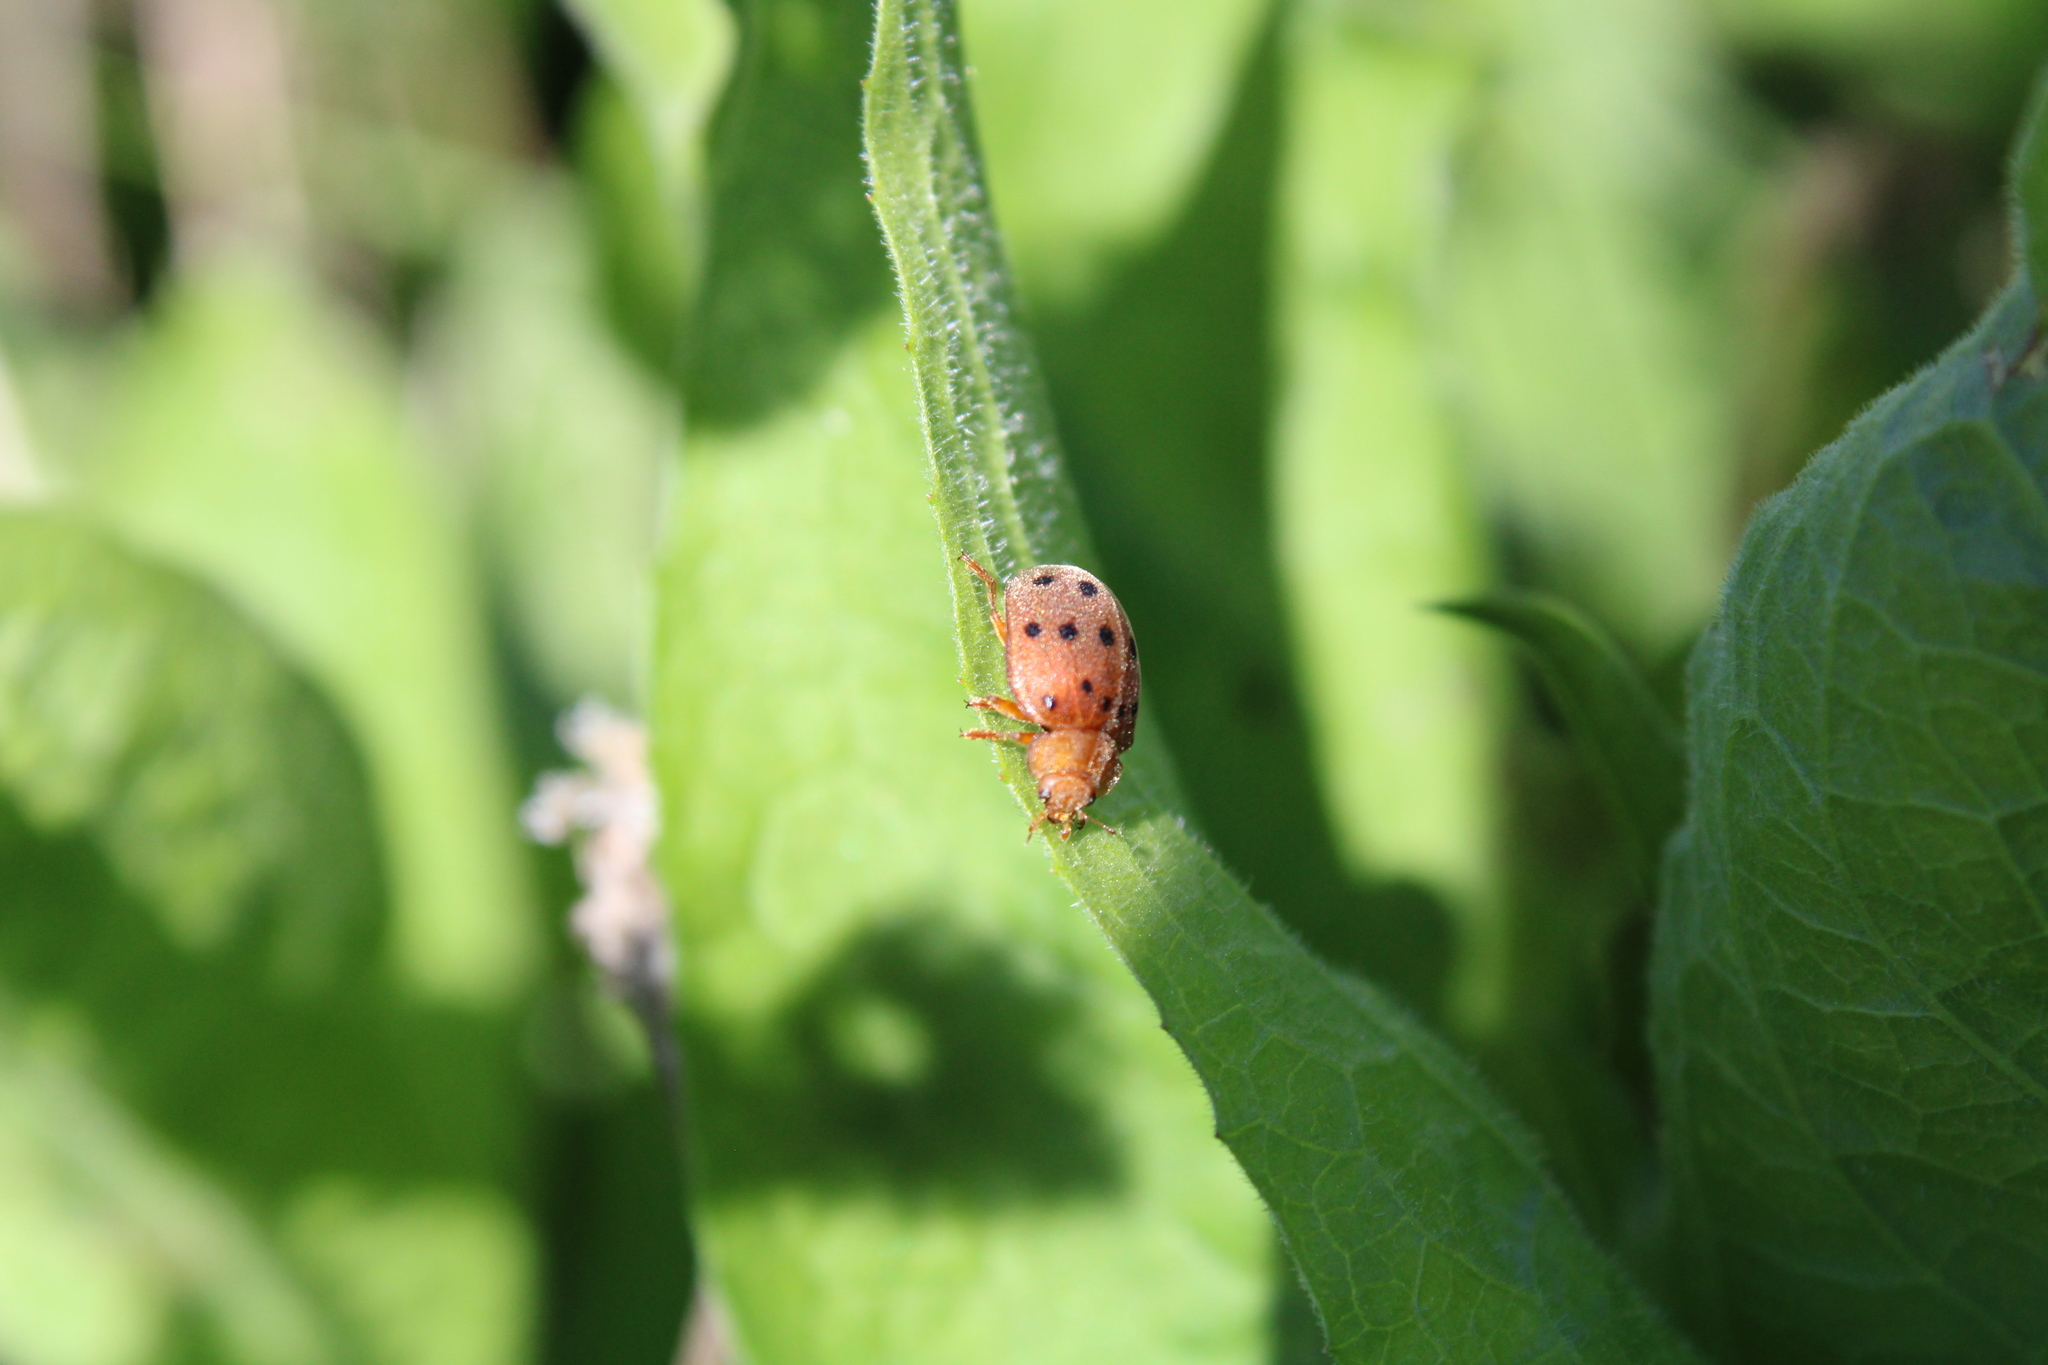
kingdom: Animalia
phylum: Arthropoda
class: Insecta
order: Coleoptera
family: Coccinellidae
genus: Epilachna
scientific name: Epilachna varivestis
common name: Ladybird beetle
